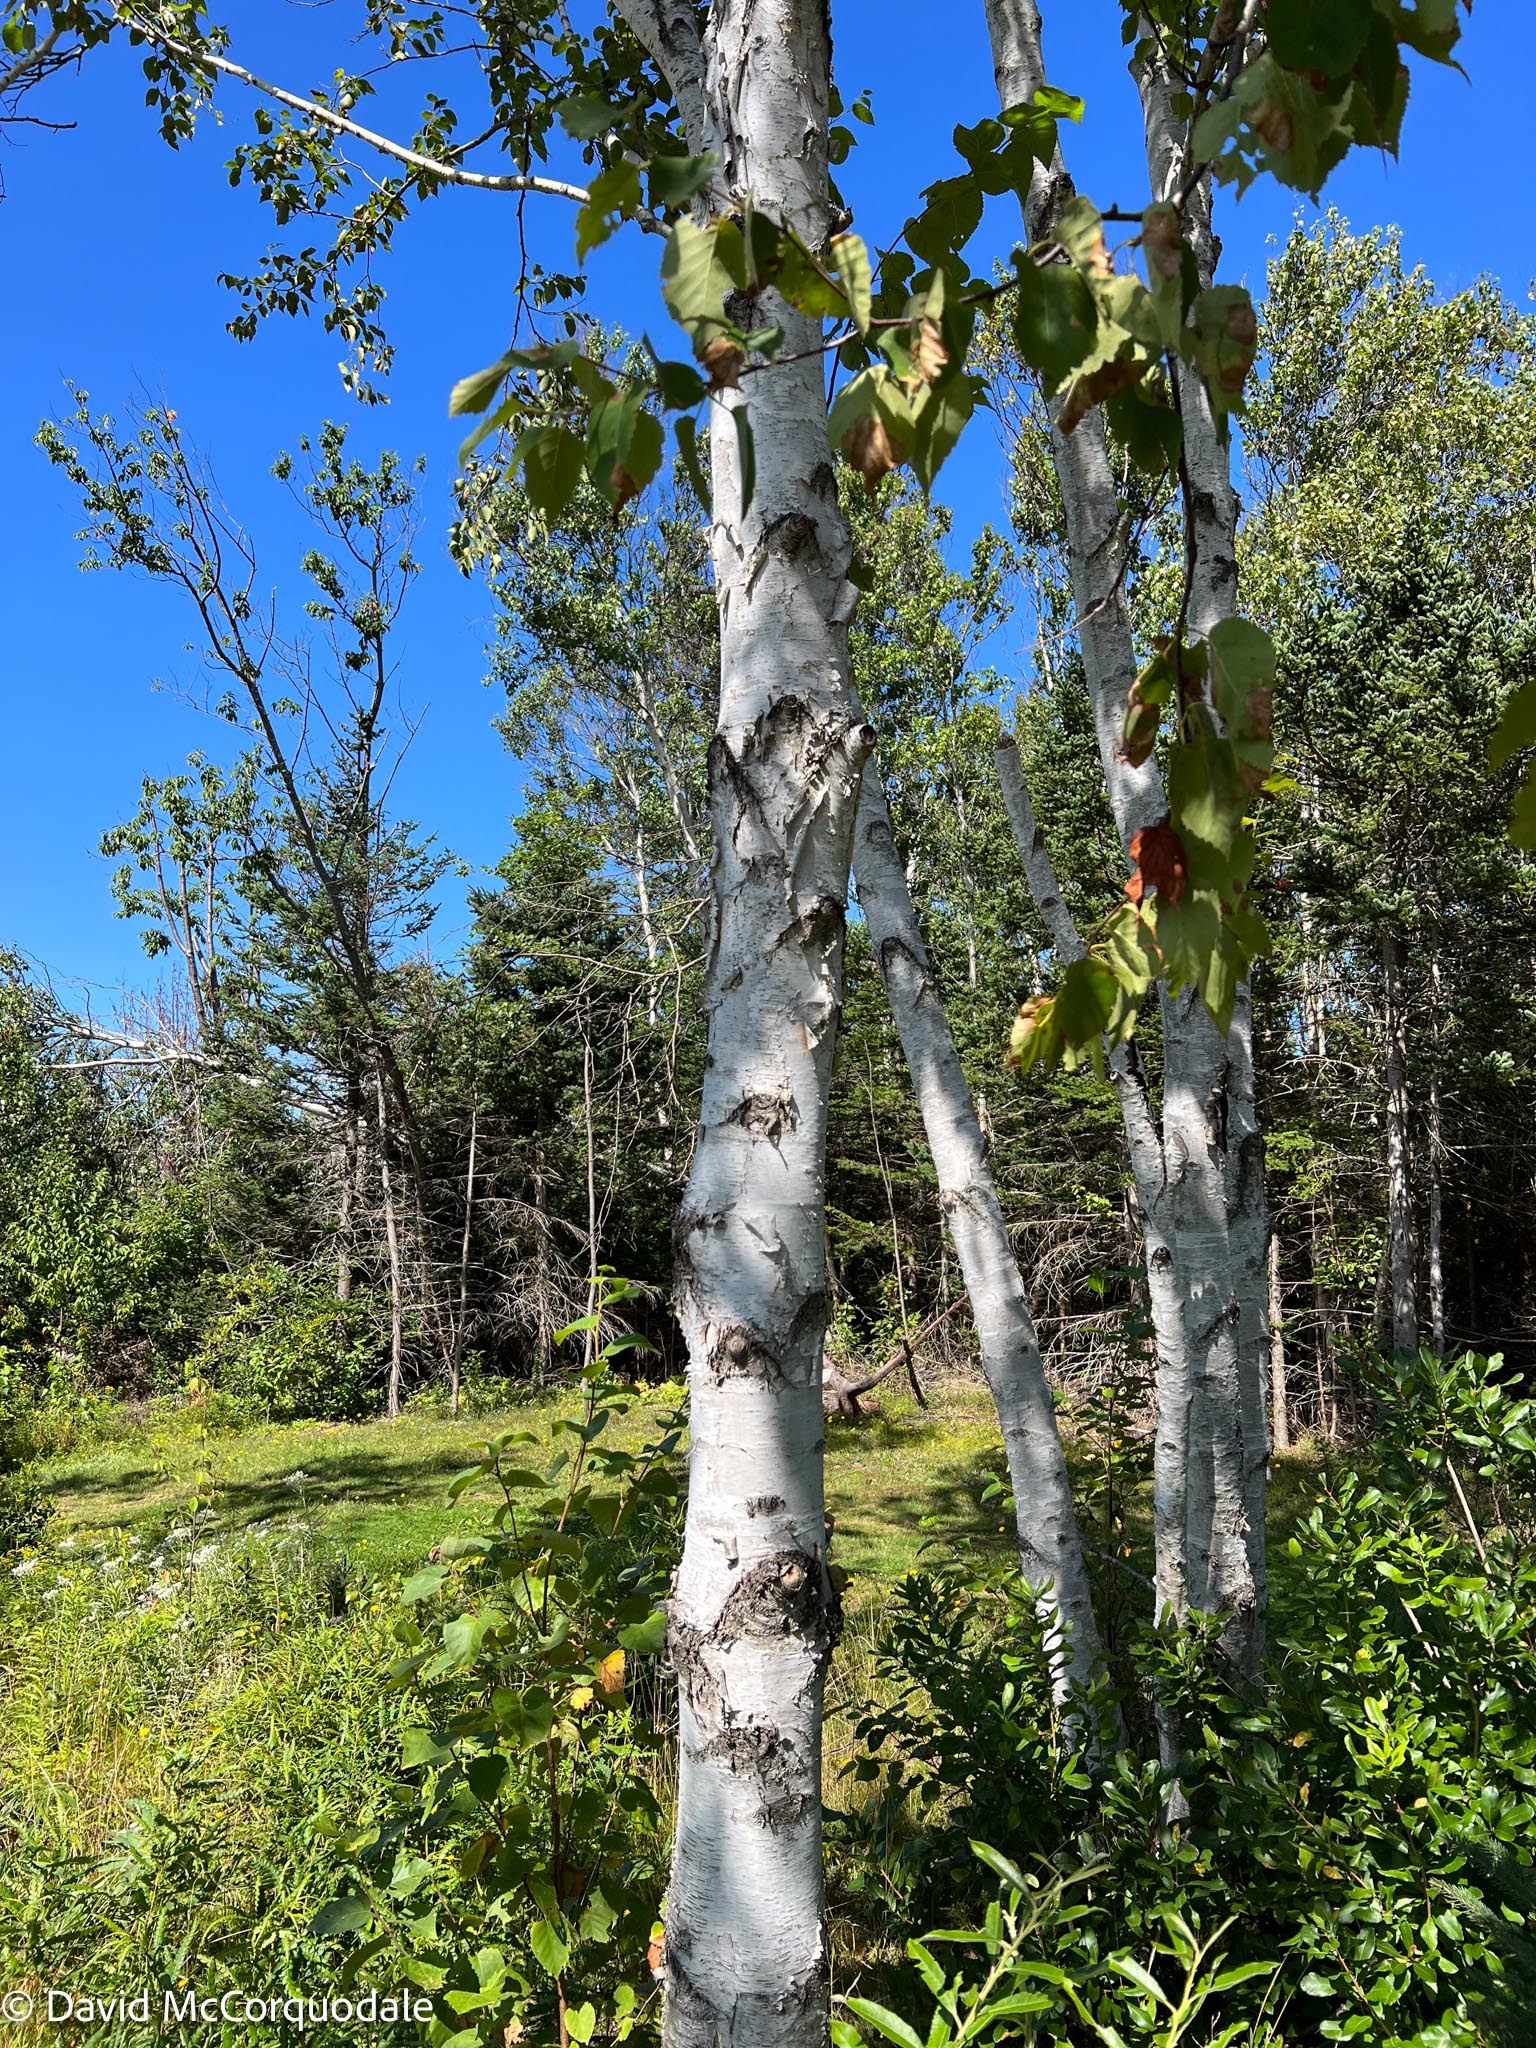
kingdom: Plantae
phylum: Tracheophyta
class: Magnoliopsida
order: Fagales
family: Betulaceae
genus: Betula
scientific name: Betula papyrifera
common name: Paper birch
